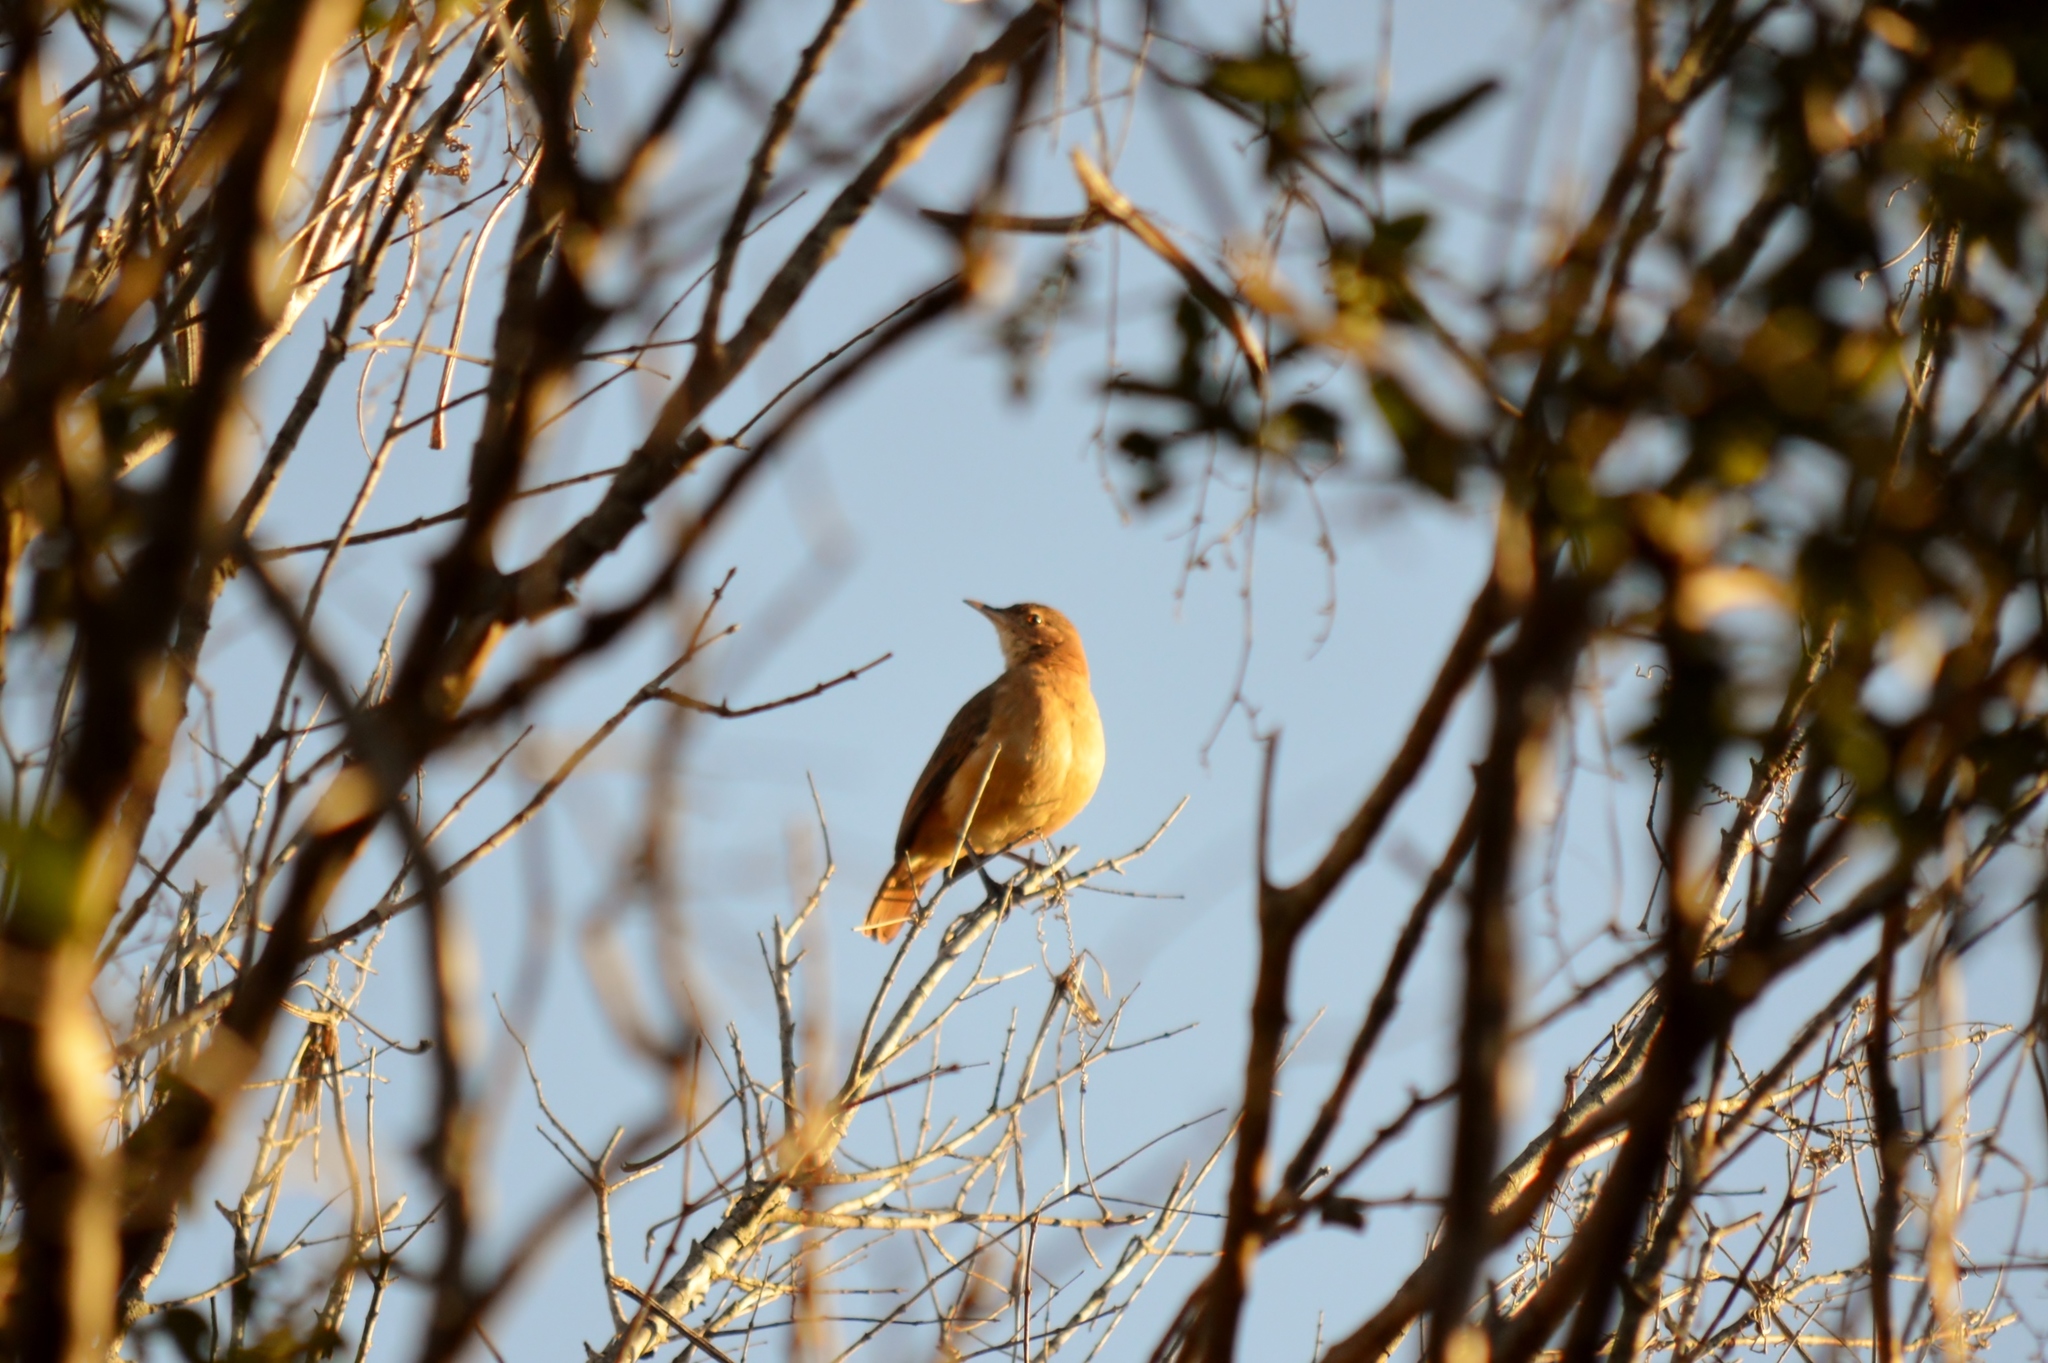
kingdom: Animalia
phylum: Chordata
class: Aves
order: Passeriformes
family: Furnariidae
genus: Furnarius
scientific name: Furnarius rufus
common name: Rufous hornero
